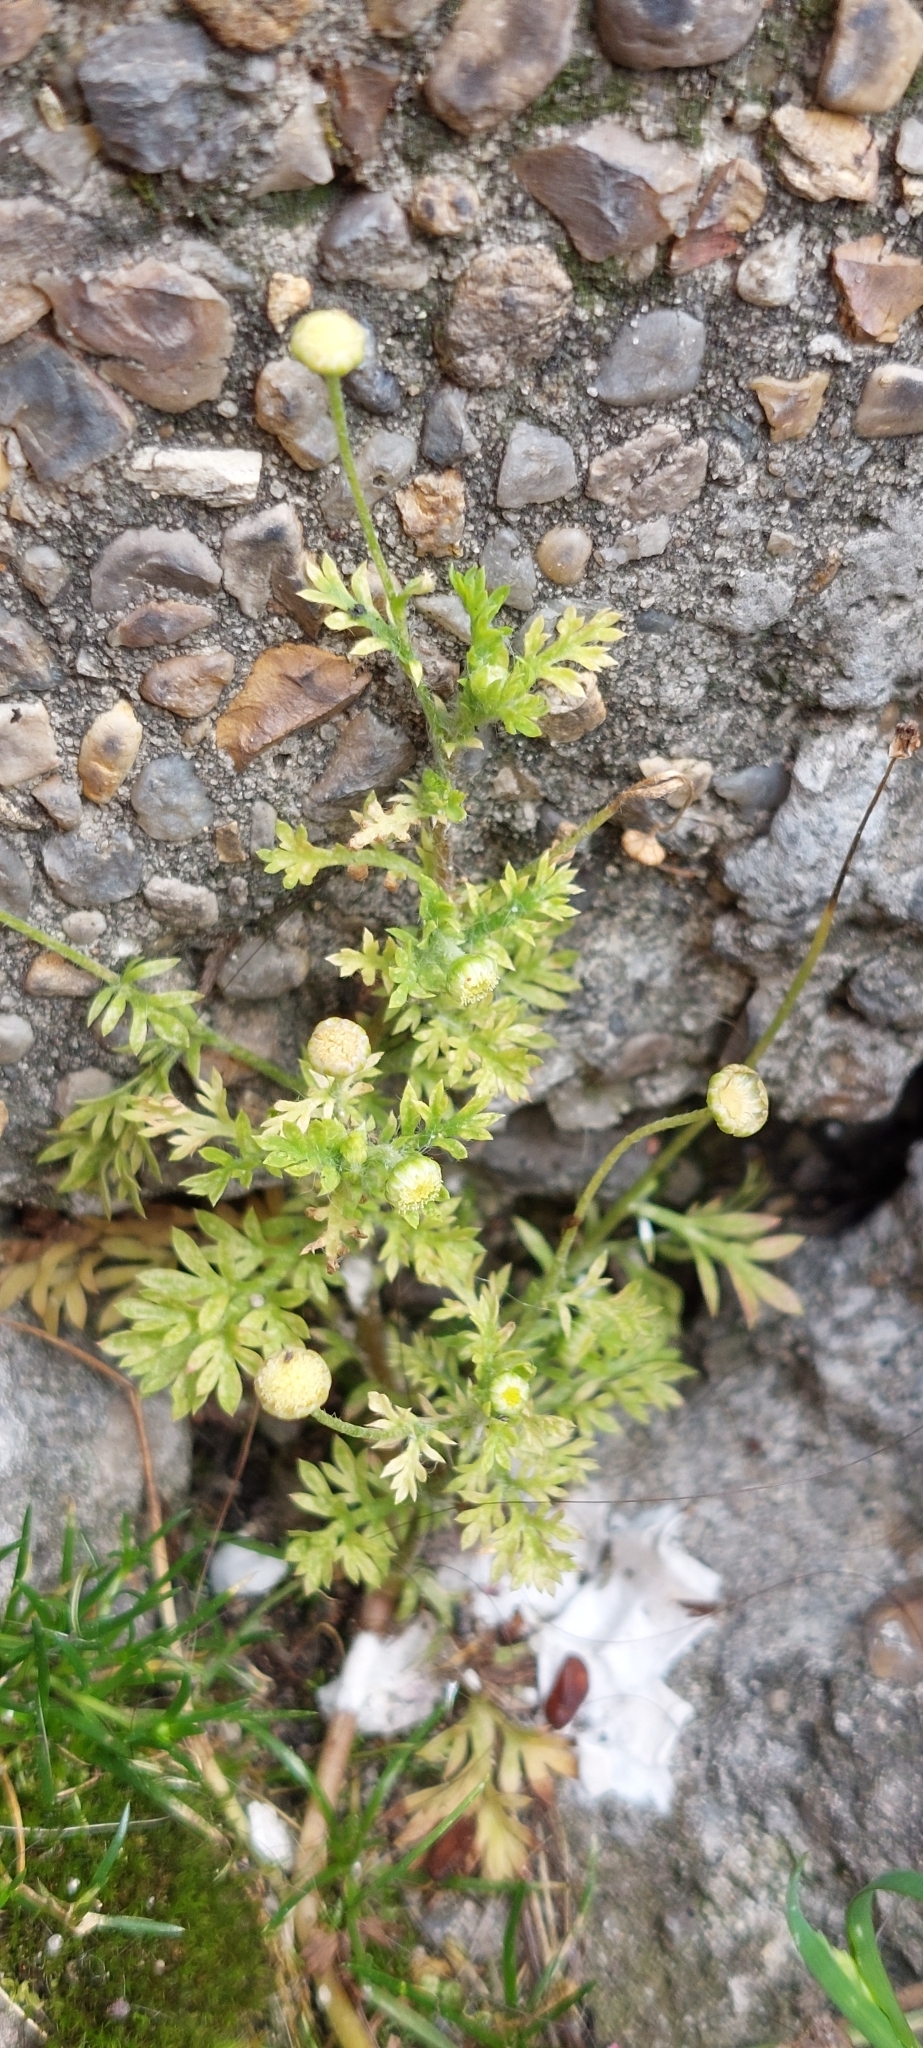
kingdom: Plantae
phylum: Tracheophyta
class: Magnoliopsida
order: Asterales
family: Asteraceae
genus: Cotula
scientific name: Cotula australis
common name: Australian waterbuttons
